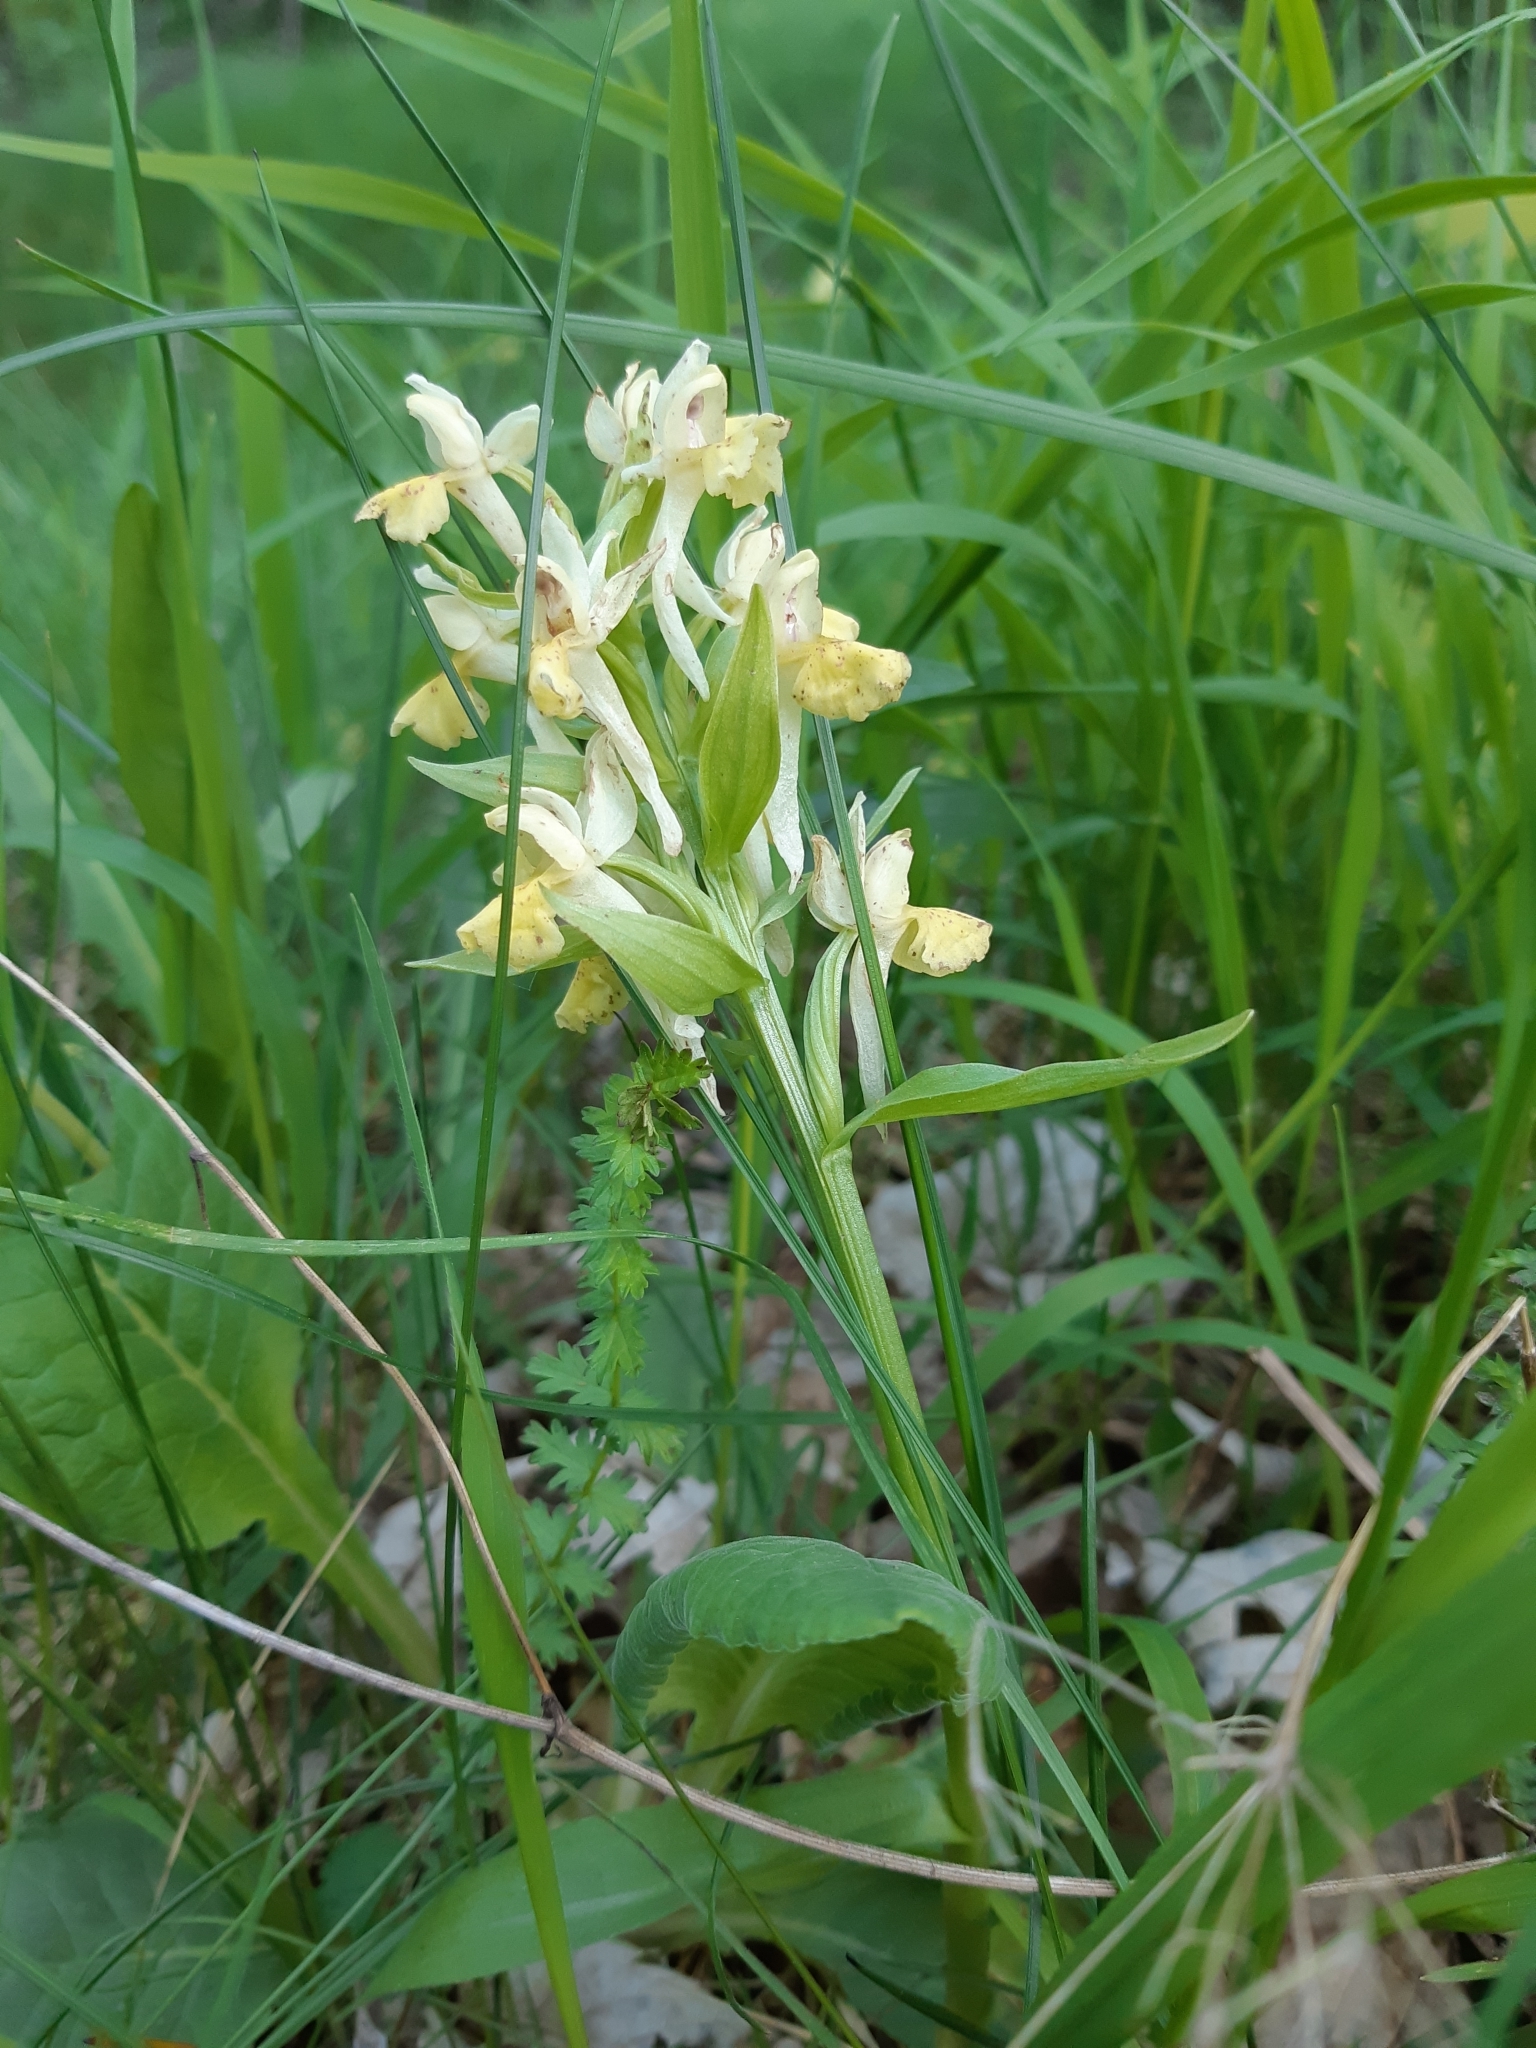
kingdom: Plantae
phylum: Tracheophyta
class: Liliopsida
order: Asparagales
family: Orchidaceae
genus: Dactylorhiza
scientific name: Dactylorhiza sambucina
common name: Elder-flowered orchid
